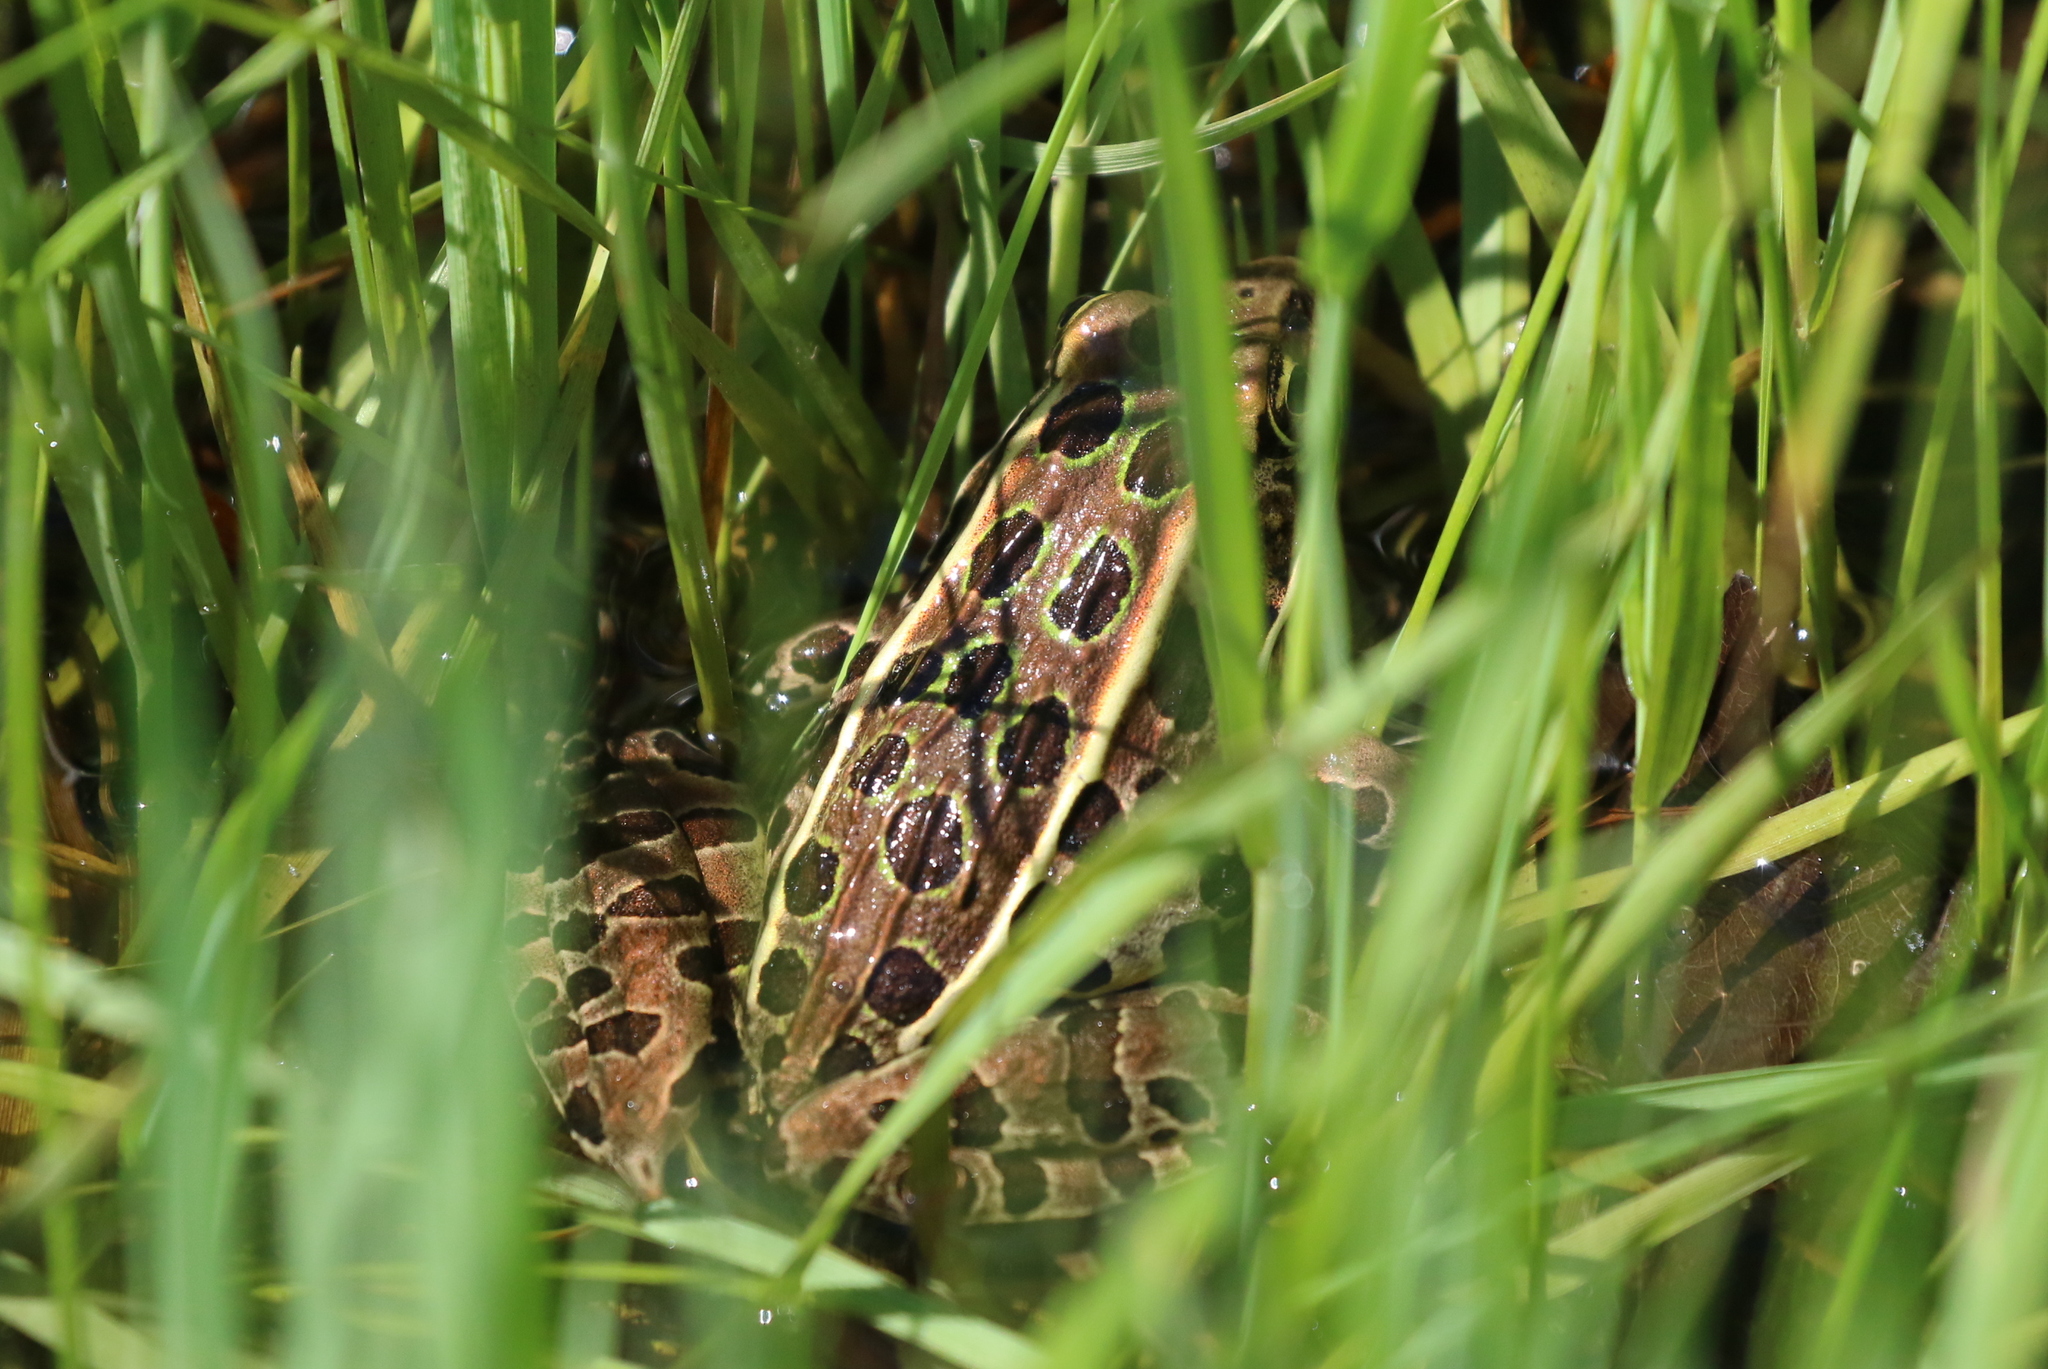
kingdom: Animalia
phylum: Chordata
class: Amphibia
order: Anura
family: Ranidae
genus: Lithobates
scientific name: Lithobates pipiens
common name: Northern leopard frog
